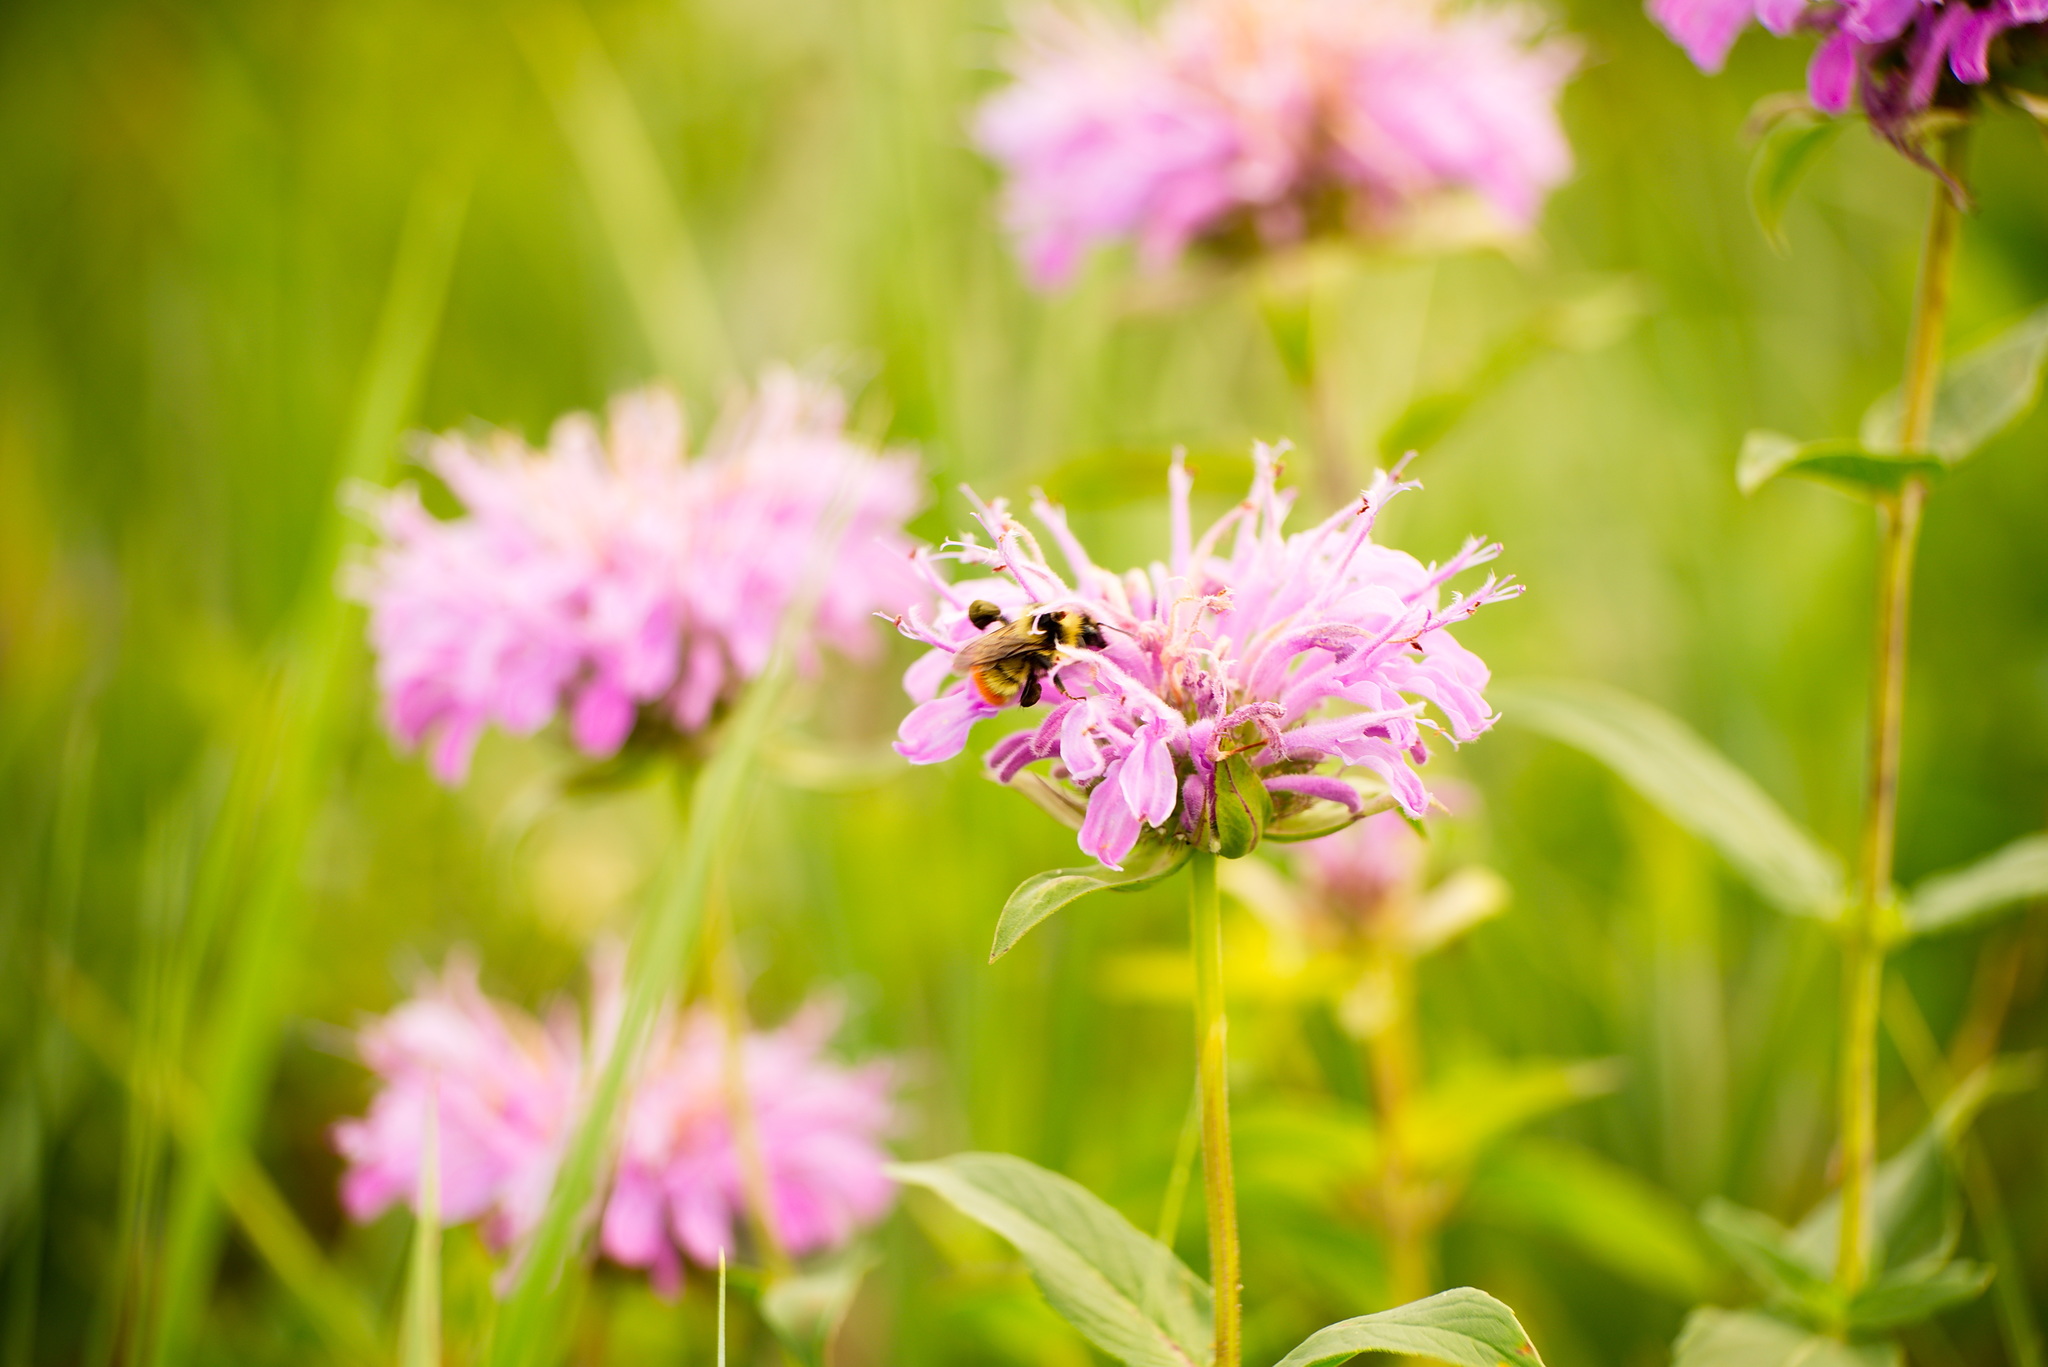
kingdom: Plantae
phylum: Tracheophyta
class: Magnoliopsida
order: Lamiales
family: Lamiaceae
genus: Monarda
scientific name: Monarda fistulosa
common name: Purple beebalm
